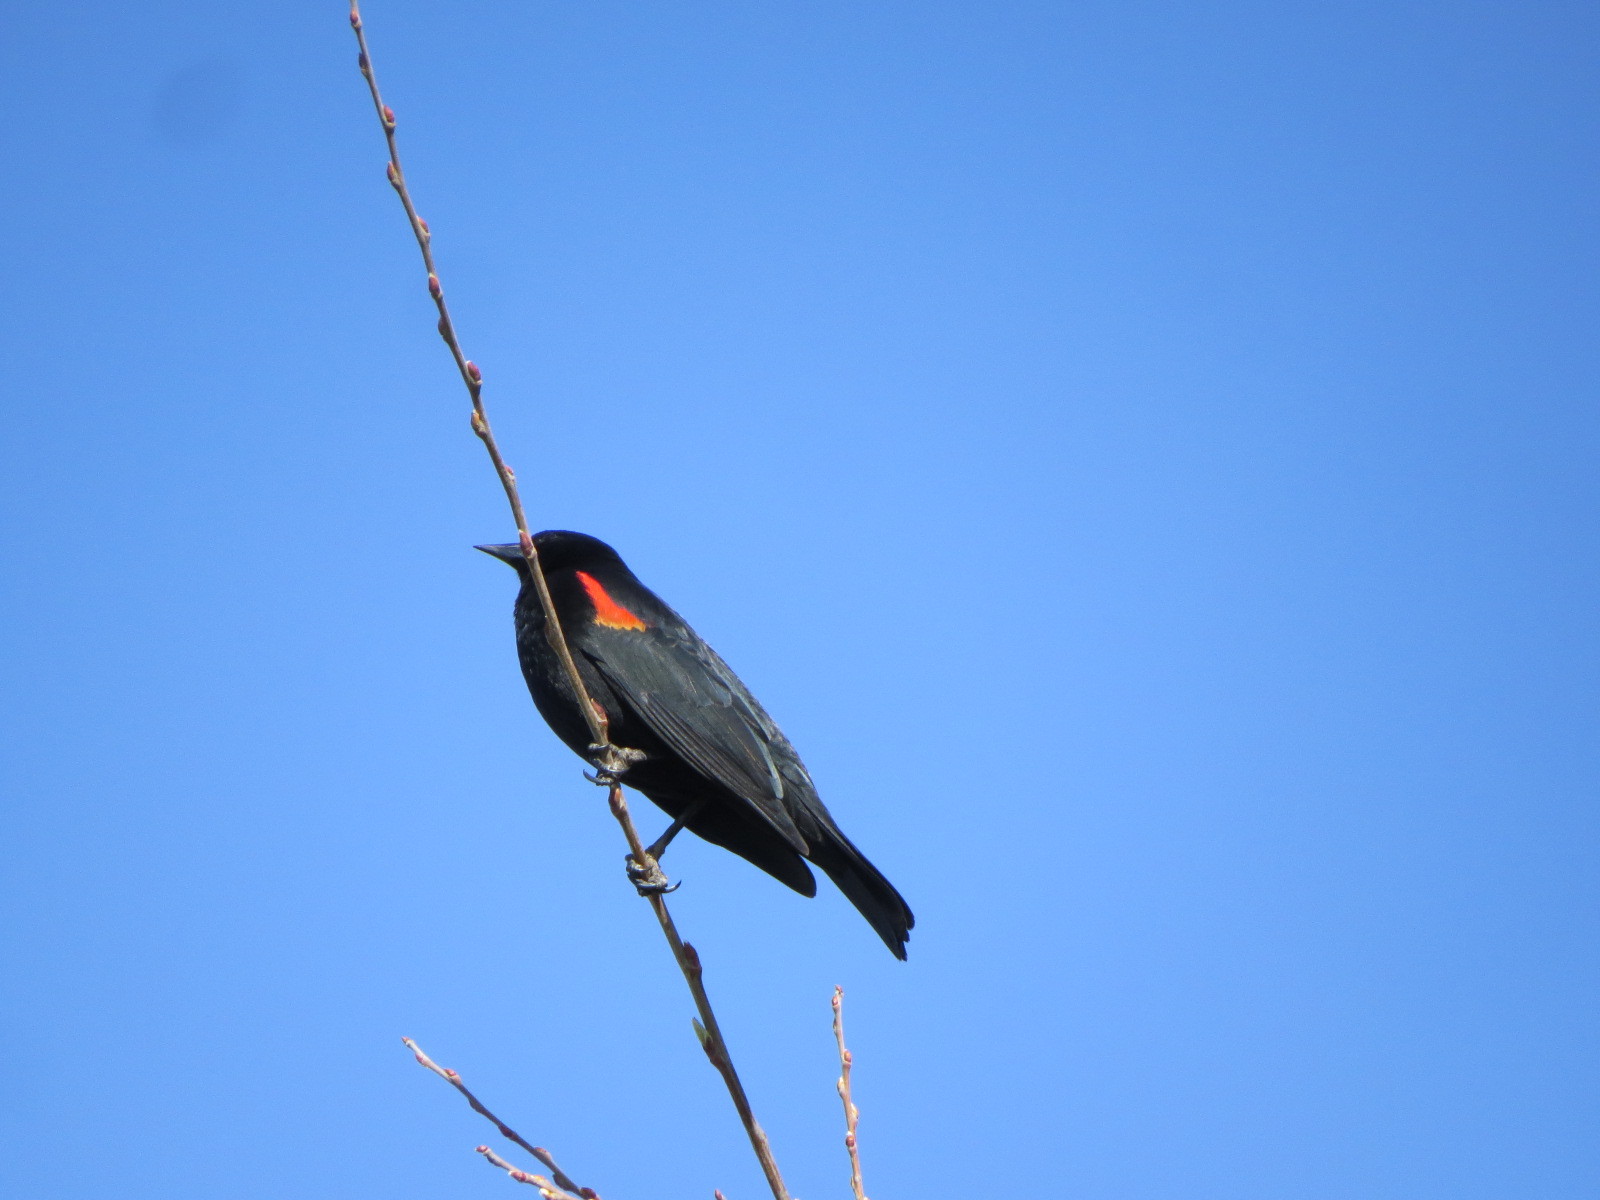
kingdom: Animalia
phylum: Chordata
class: Aves
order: Passeriformes
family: Icteridae
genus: Agelaius
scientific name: Agelaius phoeniceus
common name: Red-winged blackbird
